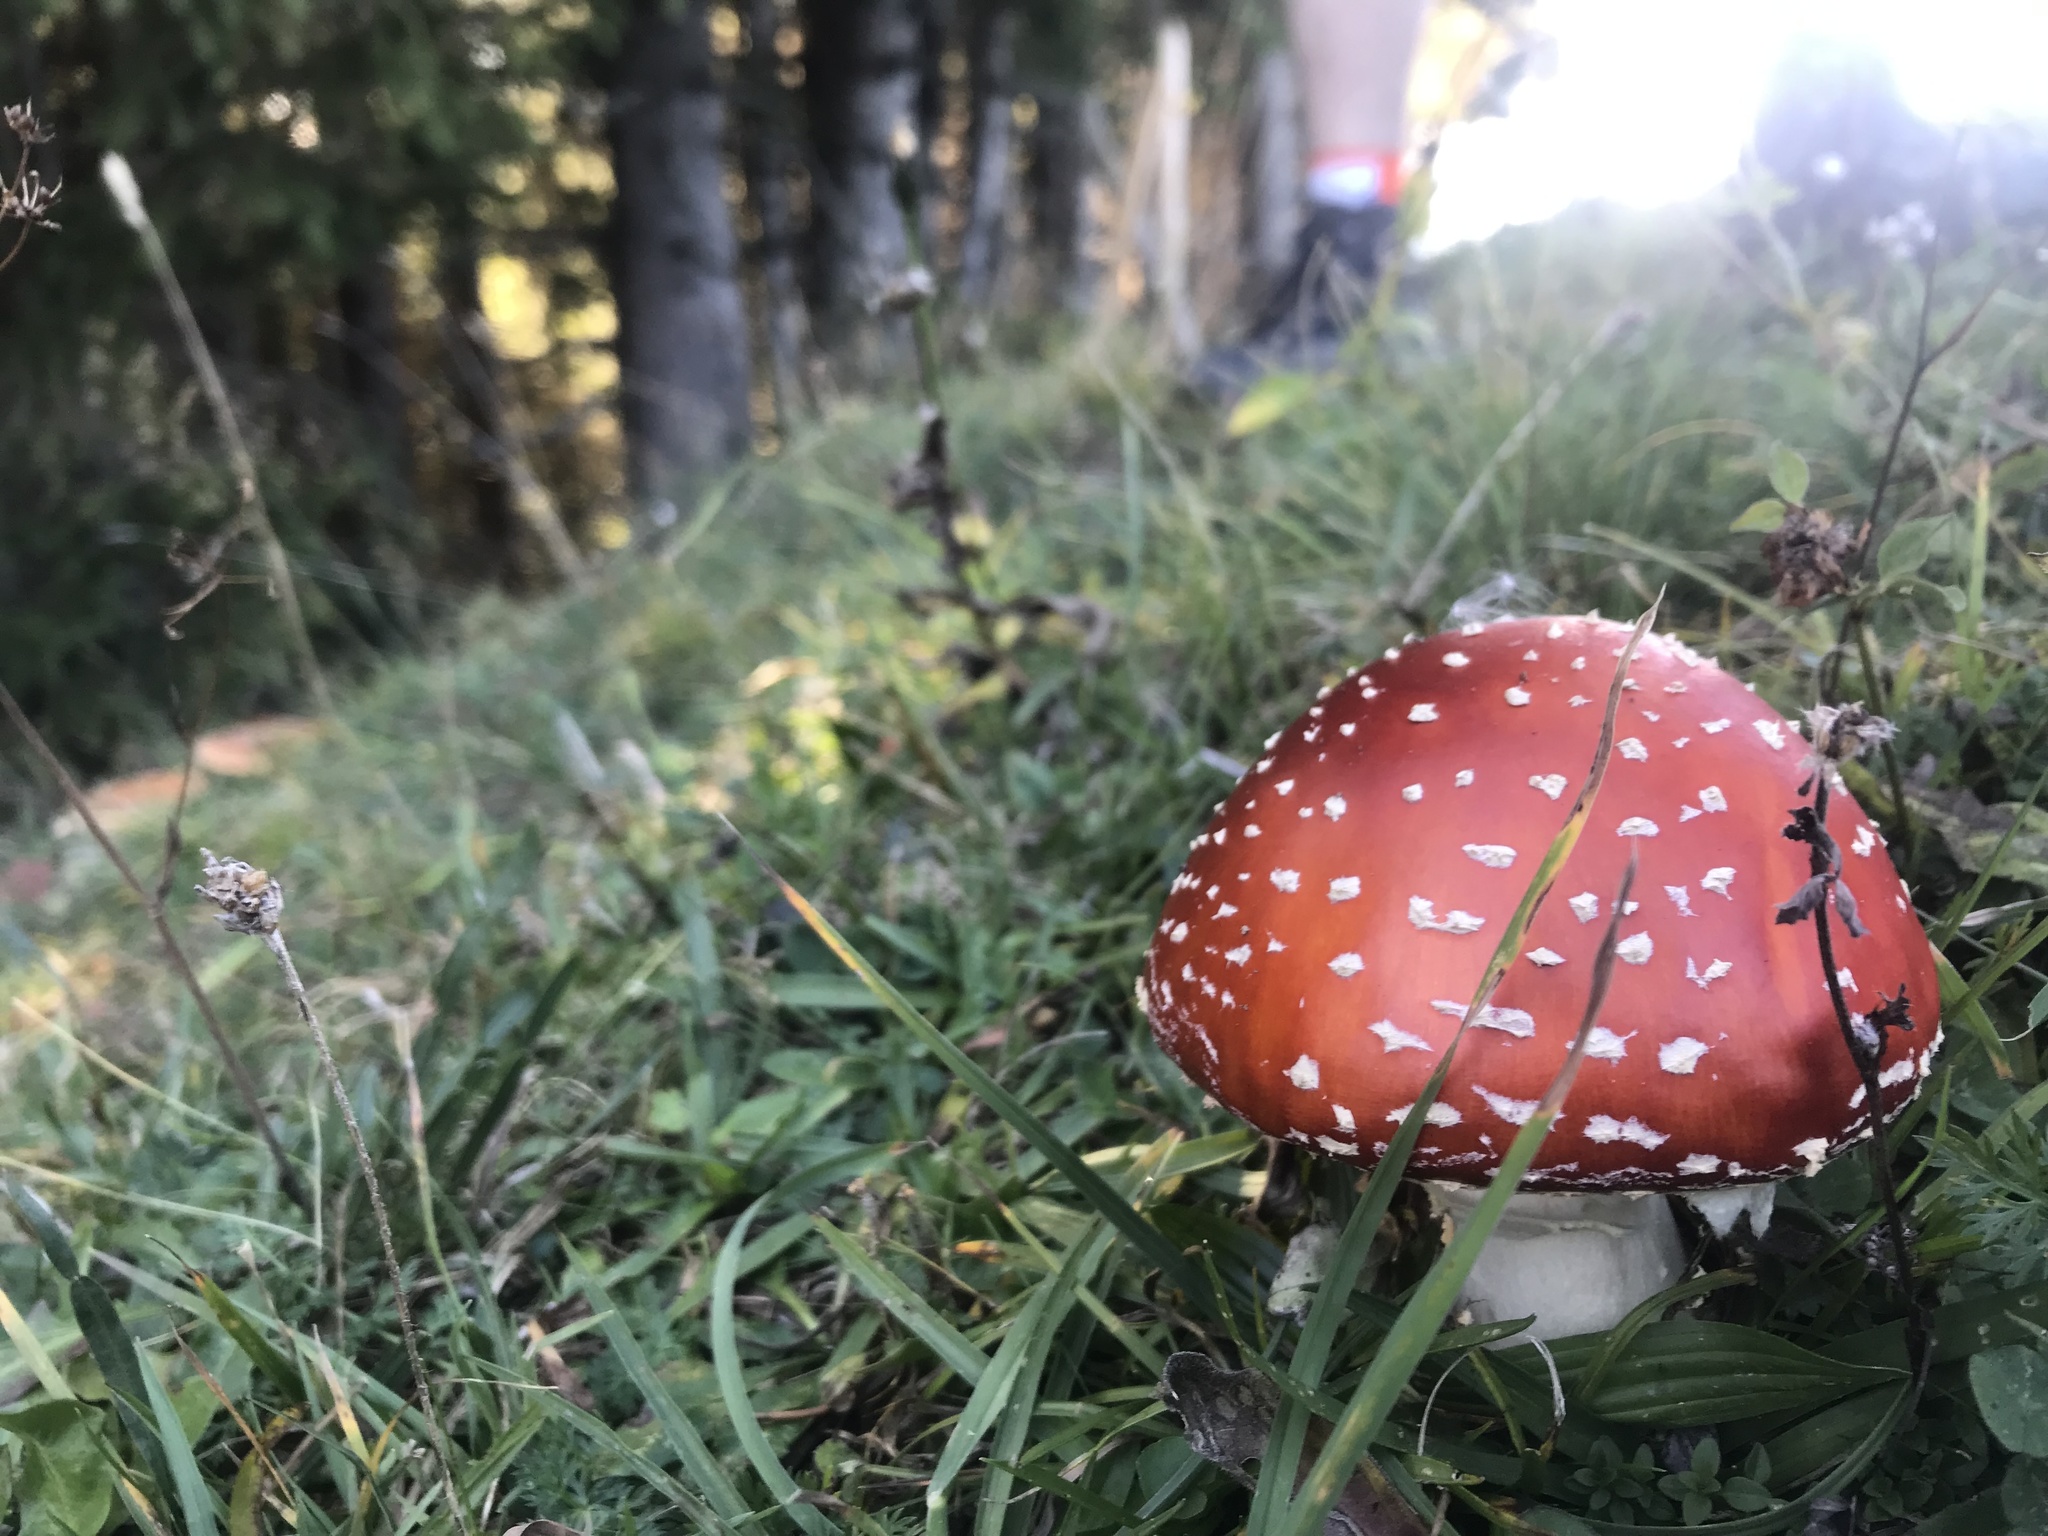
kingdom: Fungi
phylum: Basidiomycota
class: Agaricomycetes
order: Agaricales
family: Amanitaceae
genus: Amanita
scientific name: Amanita muscaria
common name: Fly agaric
